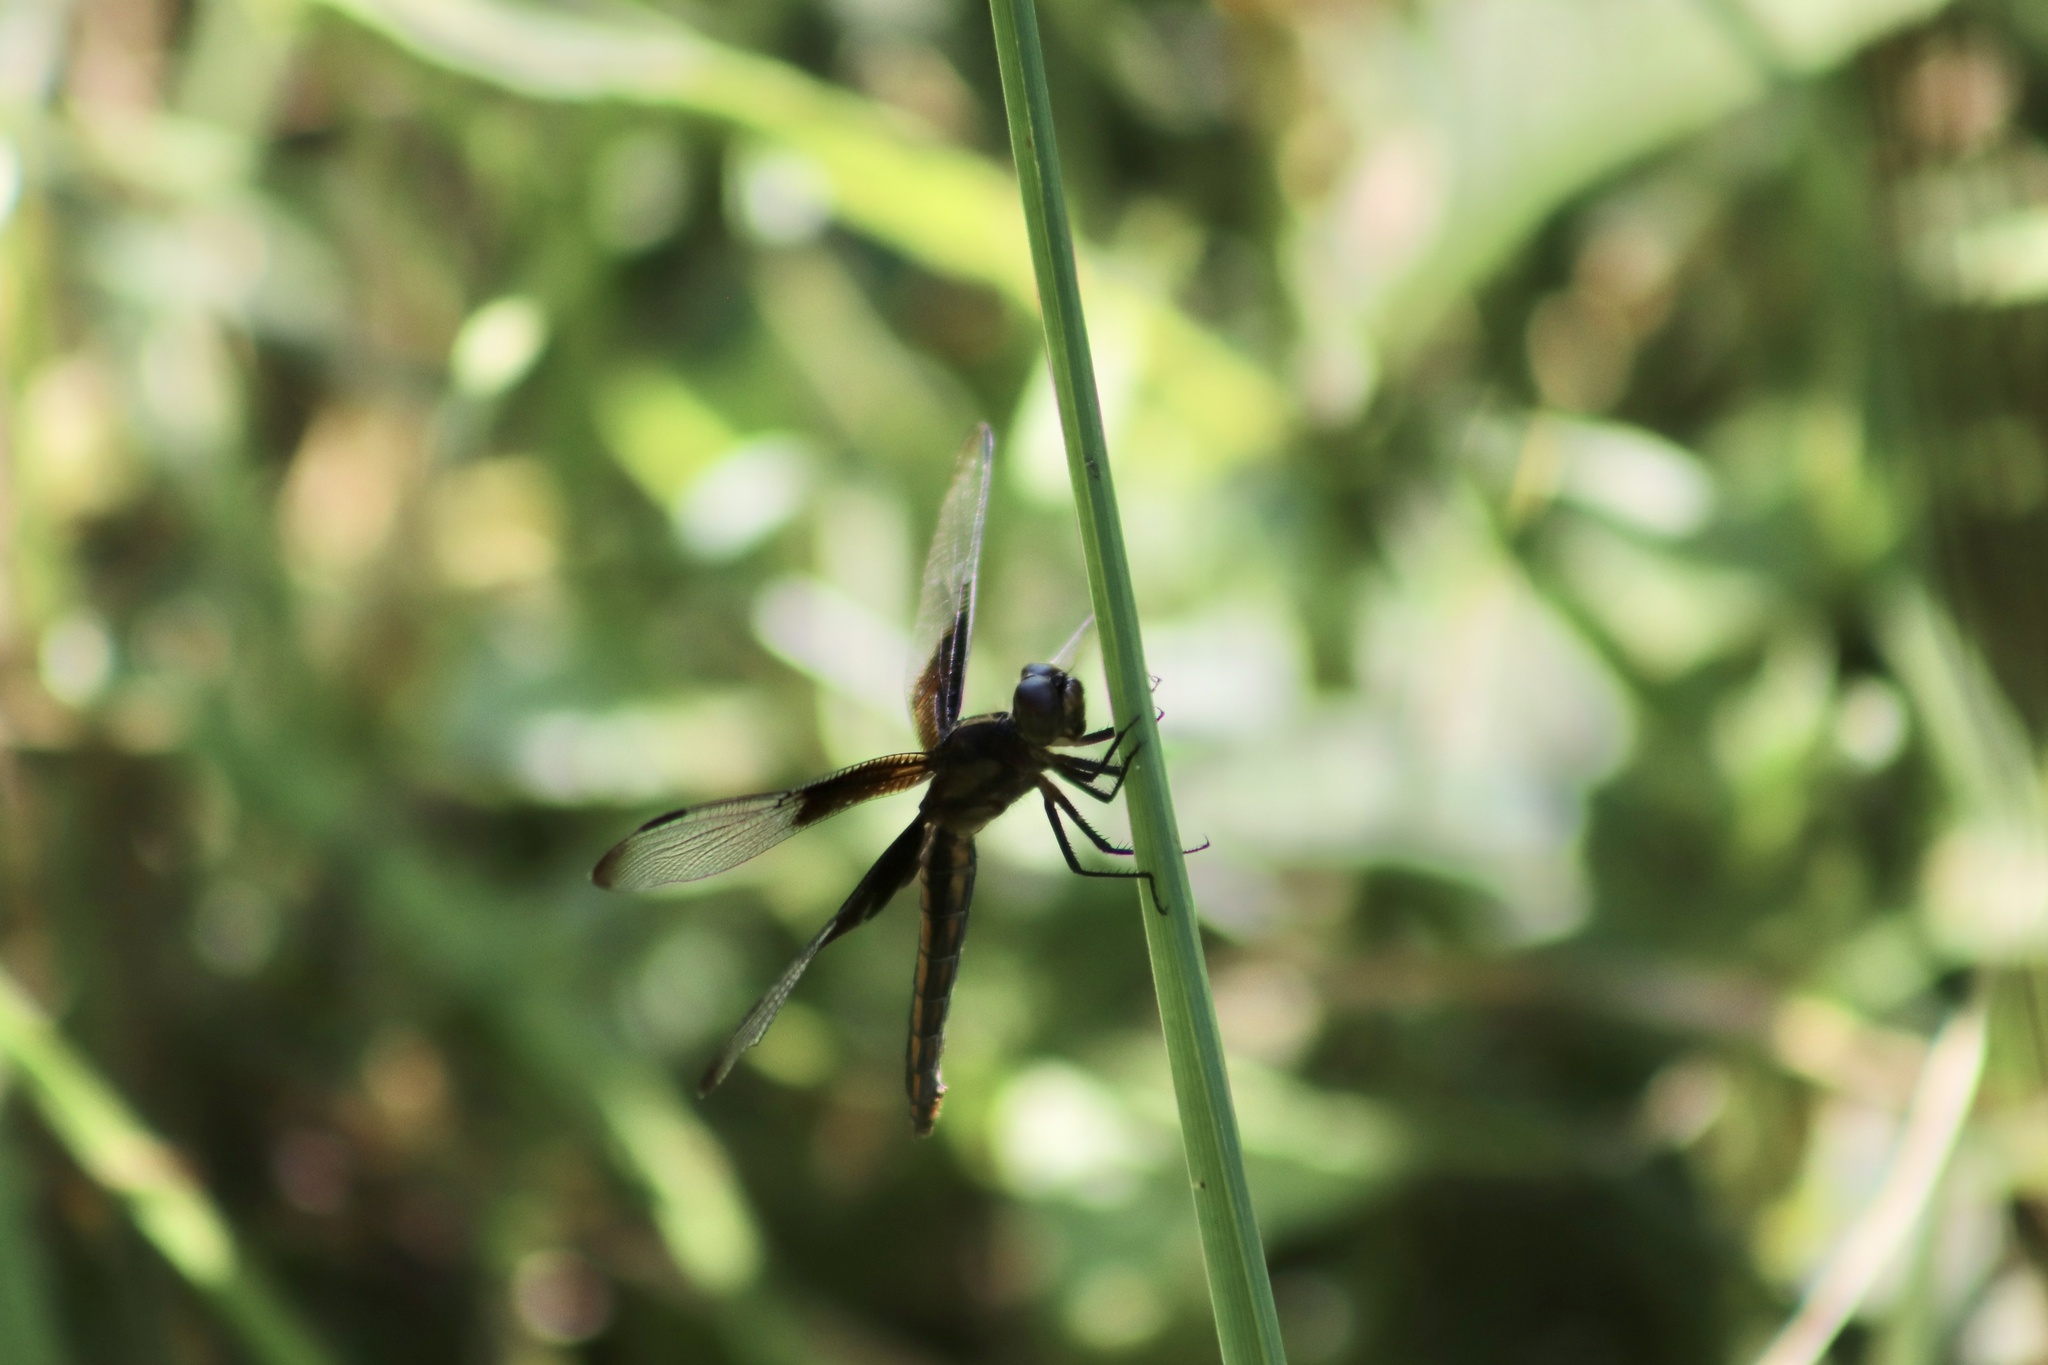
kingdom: Animalia
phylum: Arthropoda
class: Insecta
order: Odonata
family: Libellulidae
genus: Libellula
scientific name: Libellula luctuosa
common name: Widow skimmer
